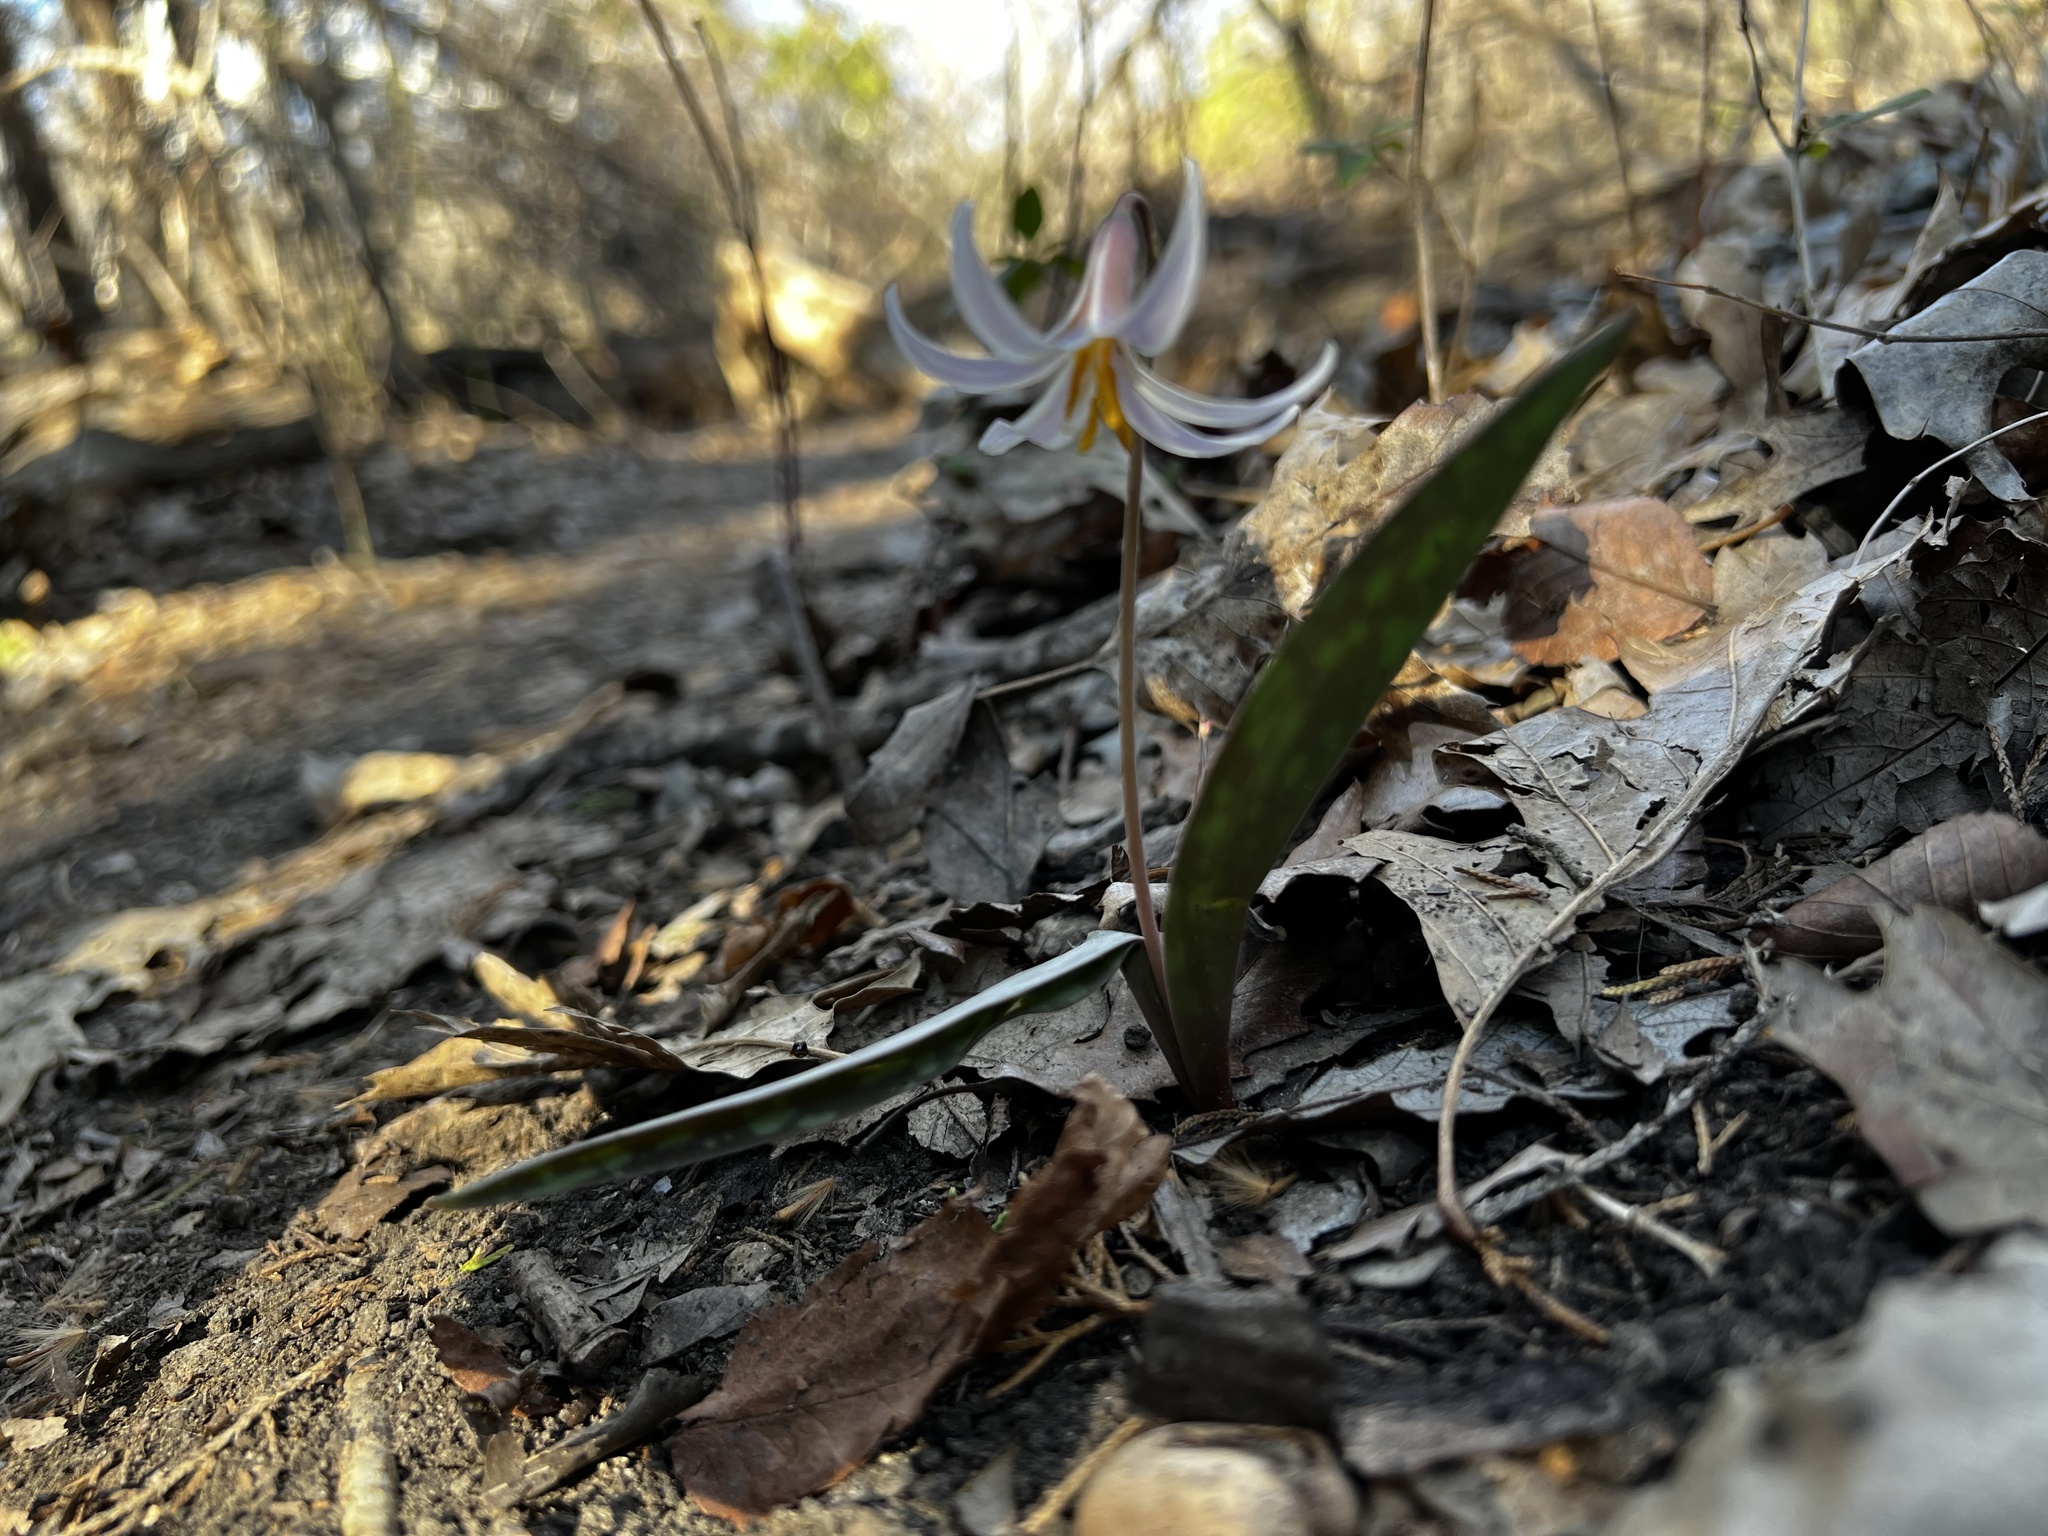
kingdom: Plantae
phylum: Tracheophyta
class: Liliopsida
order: Liliales
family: Liliaceae
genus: Erythronium
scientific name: Erythronium albidum
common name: White trout-lily
